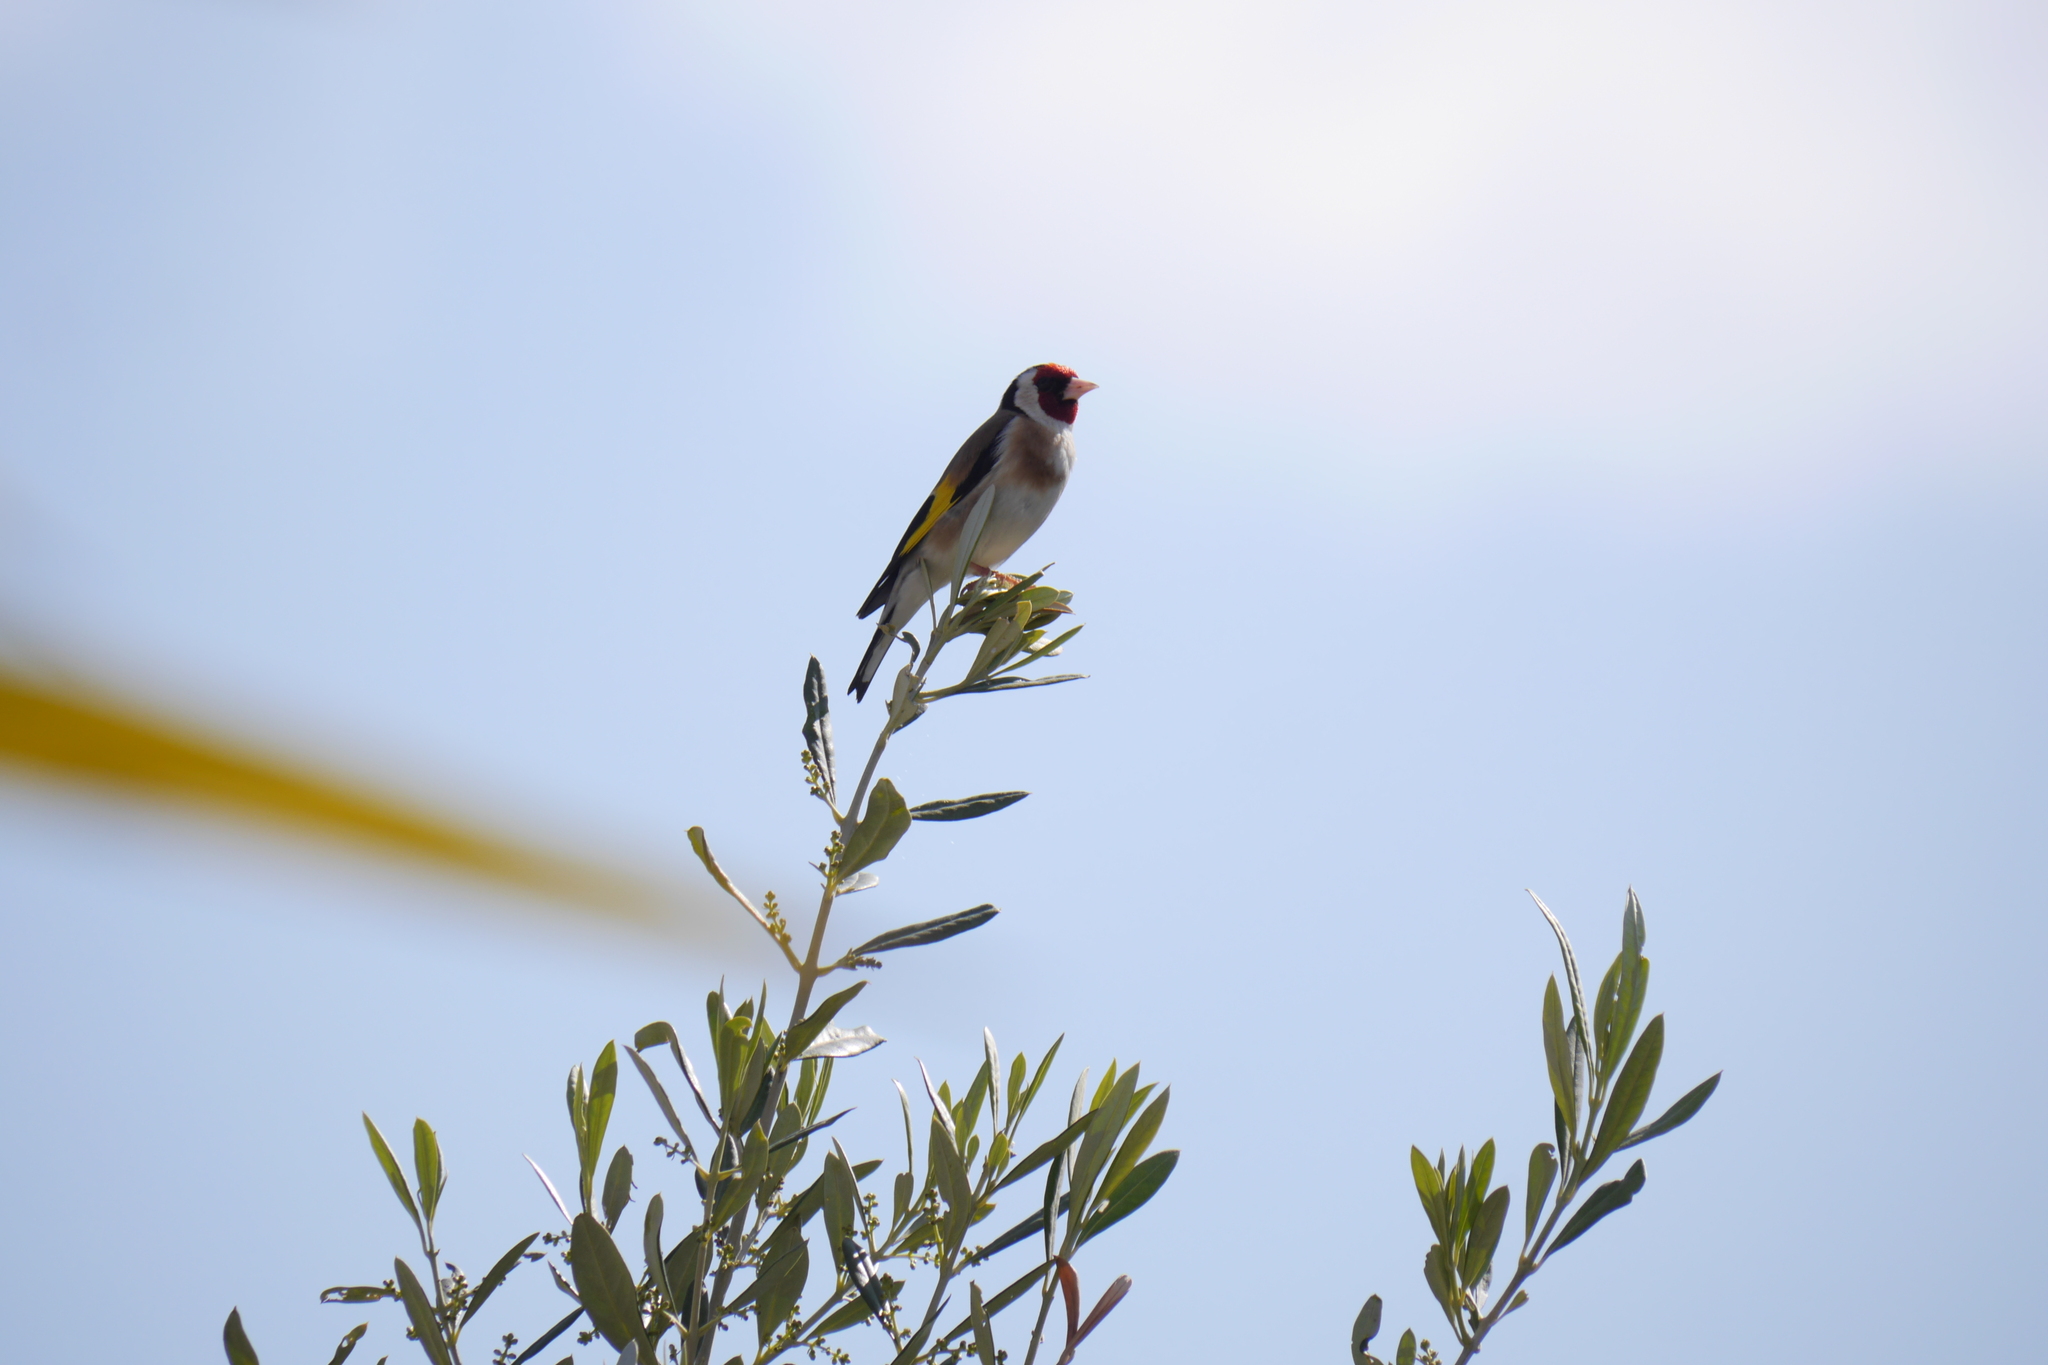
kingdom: Animalia
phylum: Chordata
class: Aves
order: Passeriformes
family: Fringillidae
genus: Carduelis
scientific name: Carduelis carduelis
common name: European goldfinch
